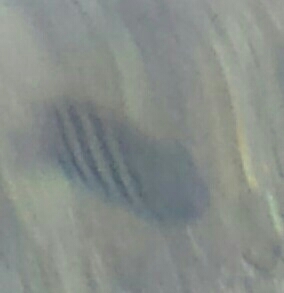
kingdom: Animalia
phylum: Chordata
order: Perciformes
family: Pomacentridae
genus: Abudefduf
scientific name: Abudefduf saxatilis
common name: Sergeant major
